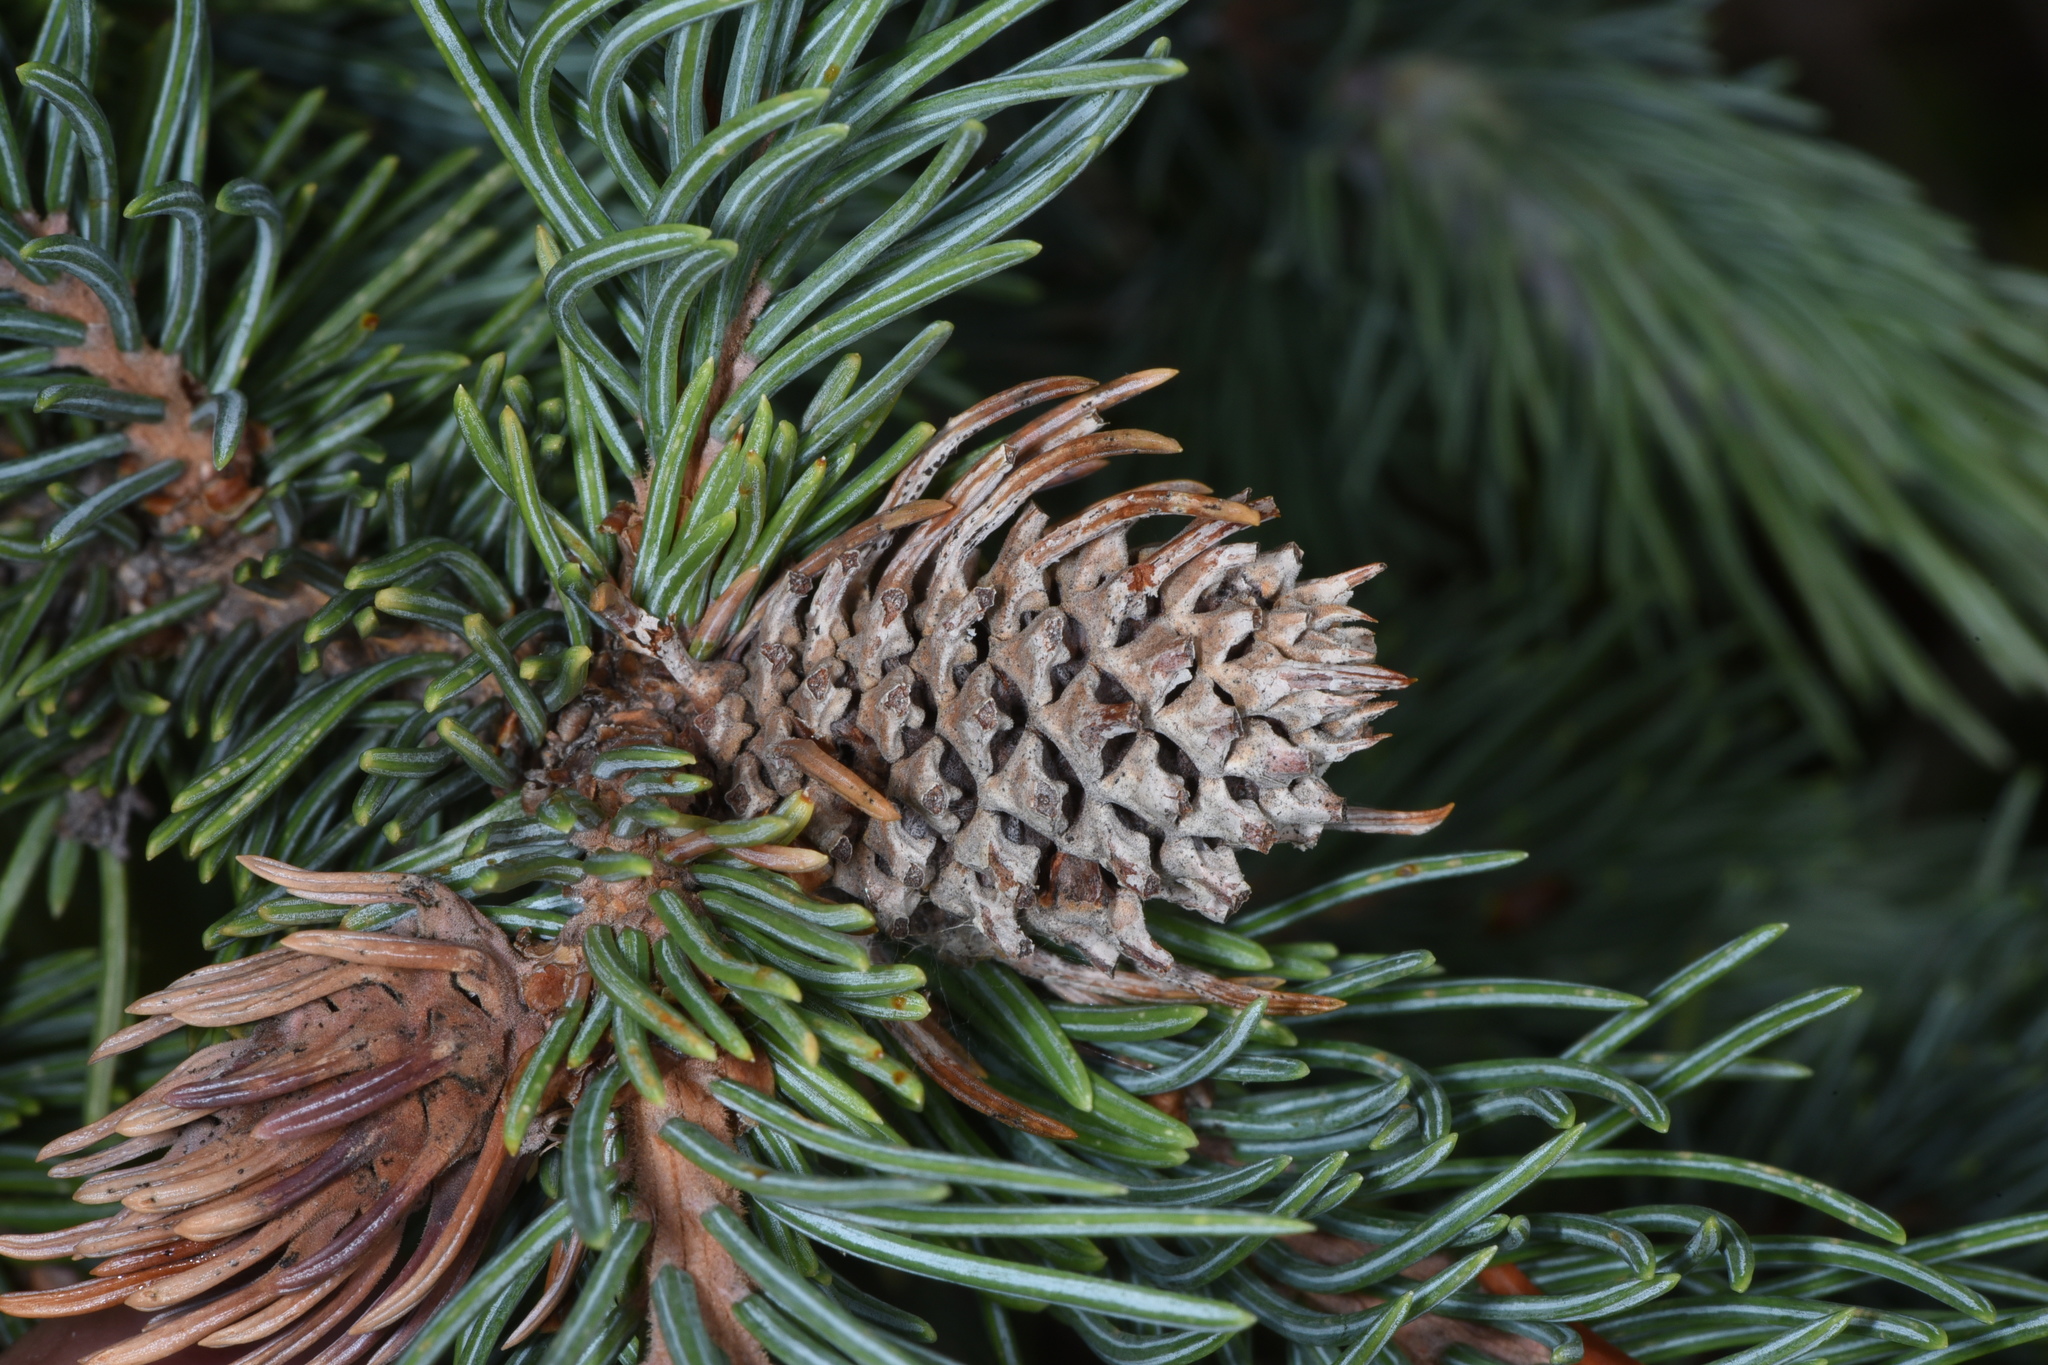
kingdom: Plantae
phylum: Tracheophyta
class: Pinopsida
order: Pinales
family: Pinaceae
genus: Picea
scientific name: Picea engelmannii
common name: Engelmann spruce
